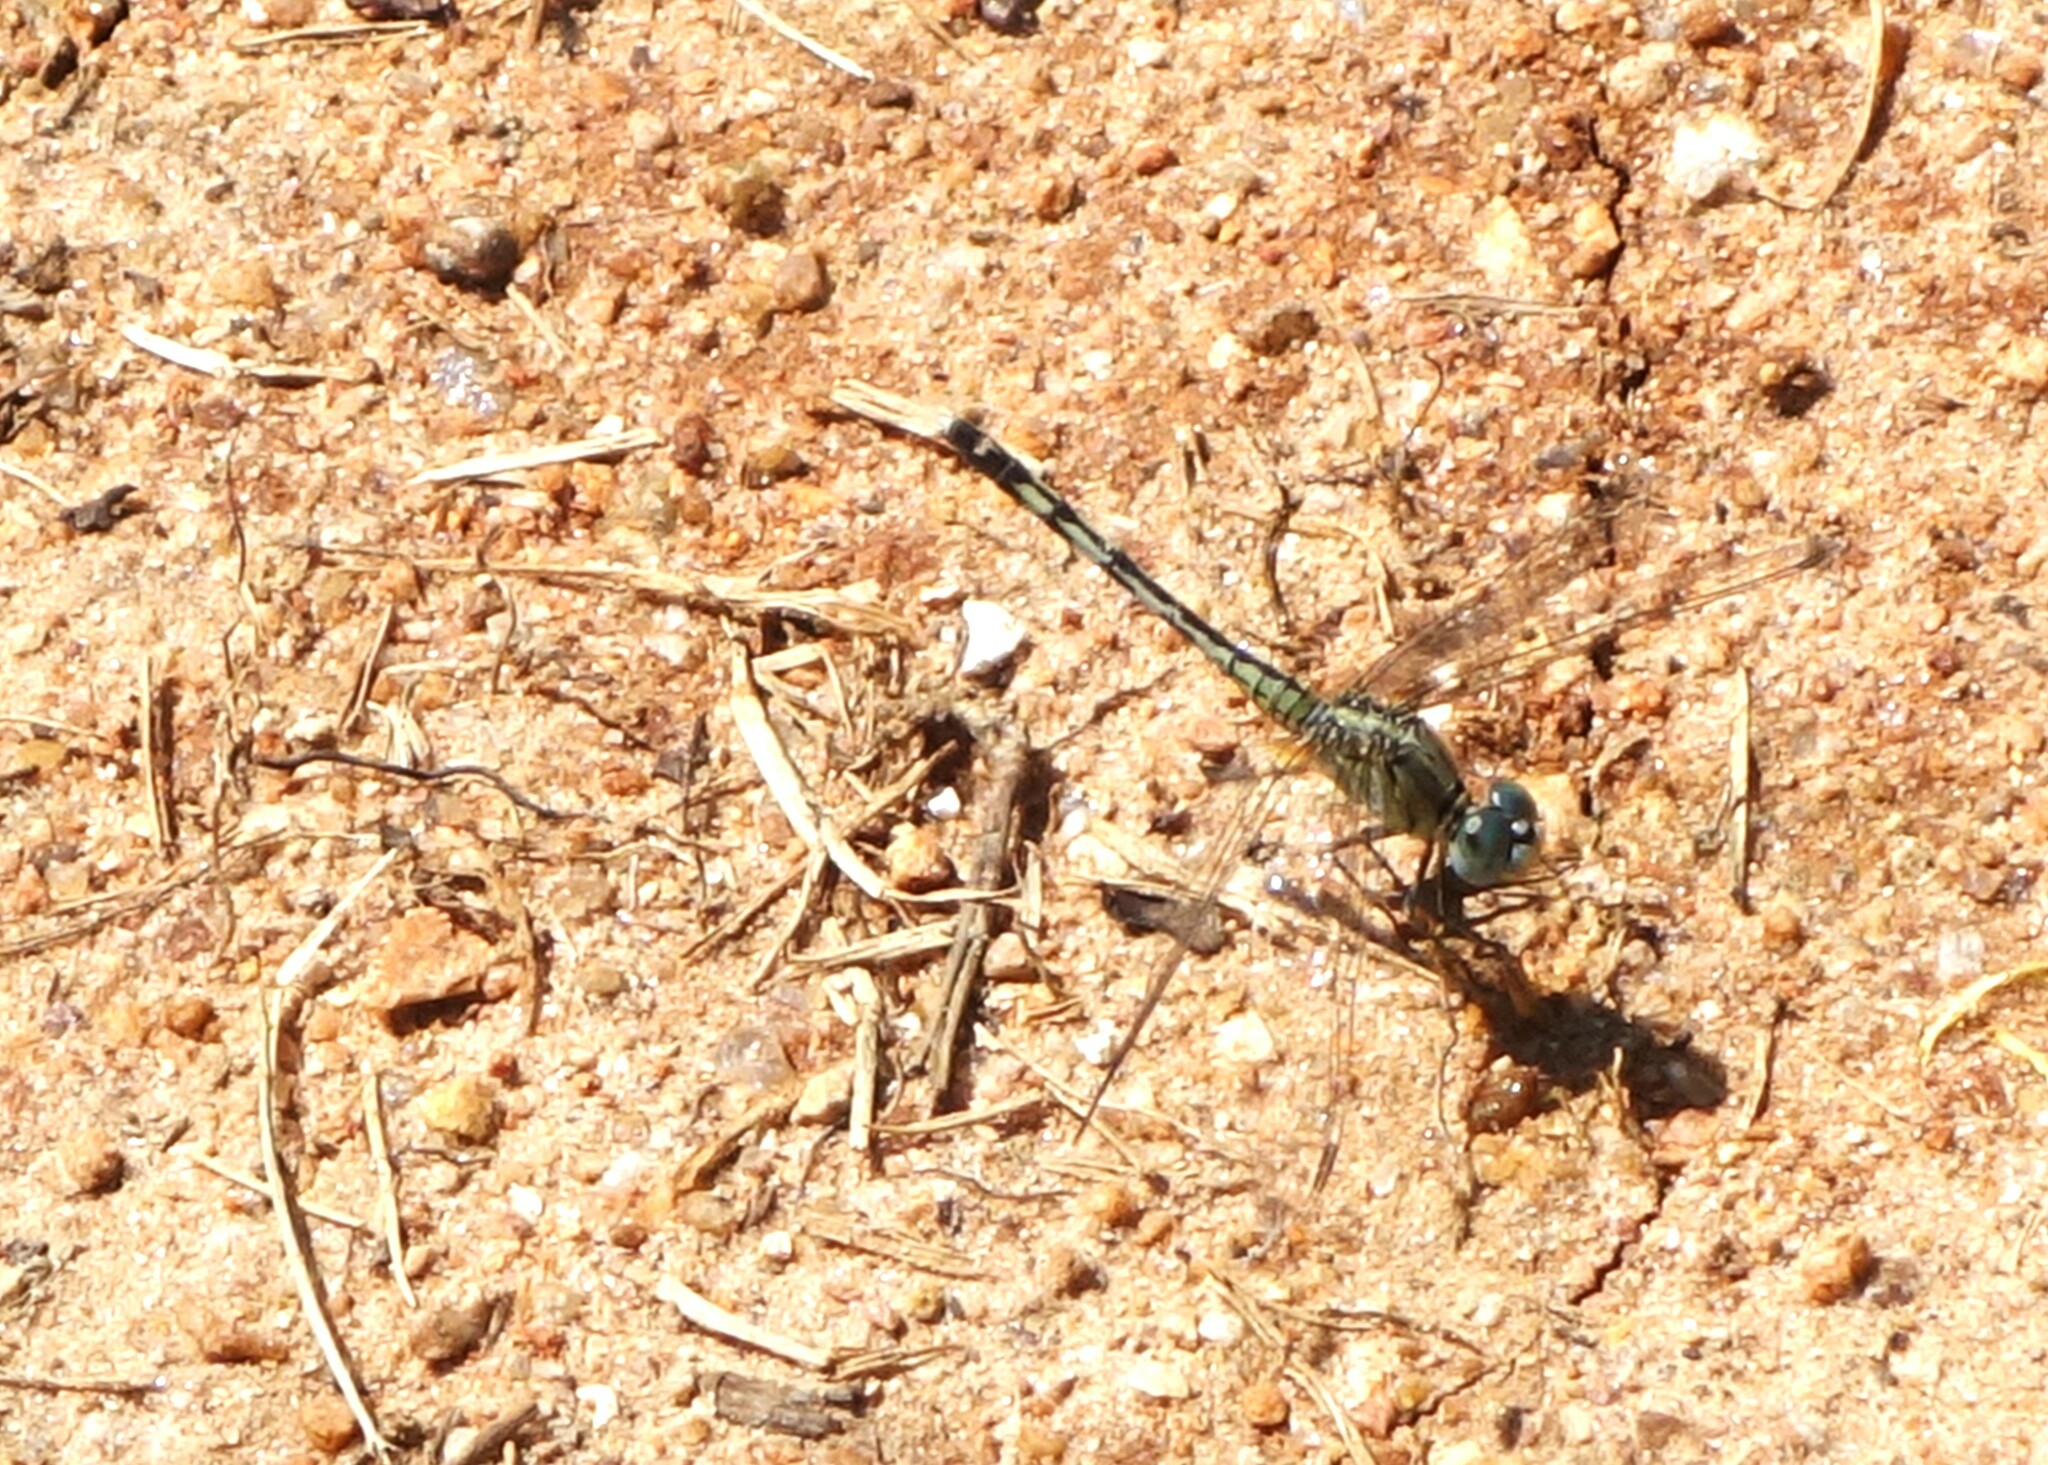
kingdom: Animalia
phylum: Arthropoda
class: Insecta
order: Odonata
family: Libellulidae
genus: Diplacodes
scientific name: Diplacodes trivialis
